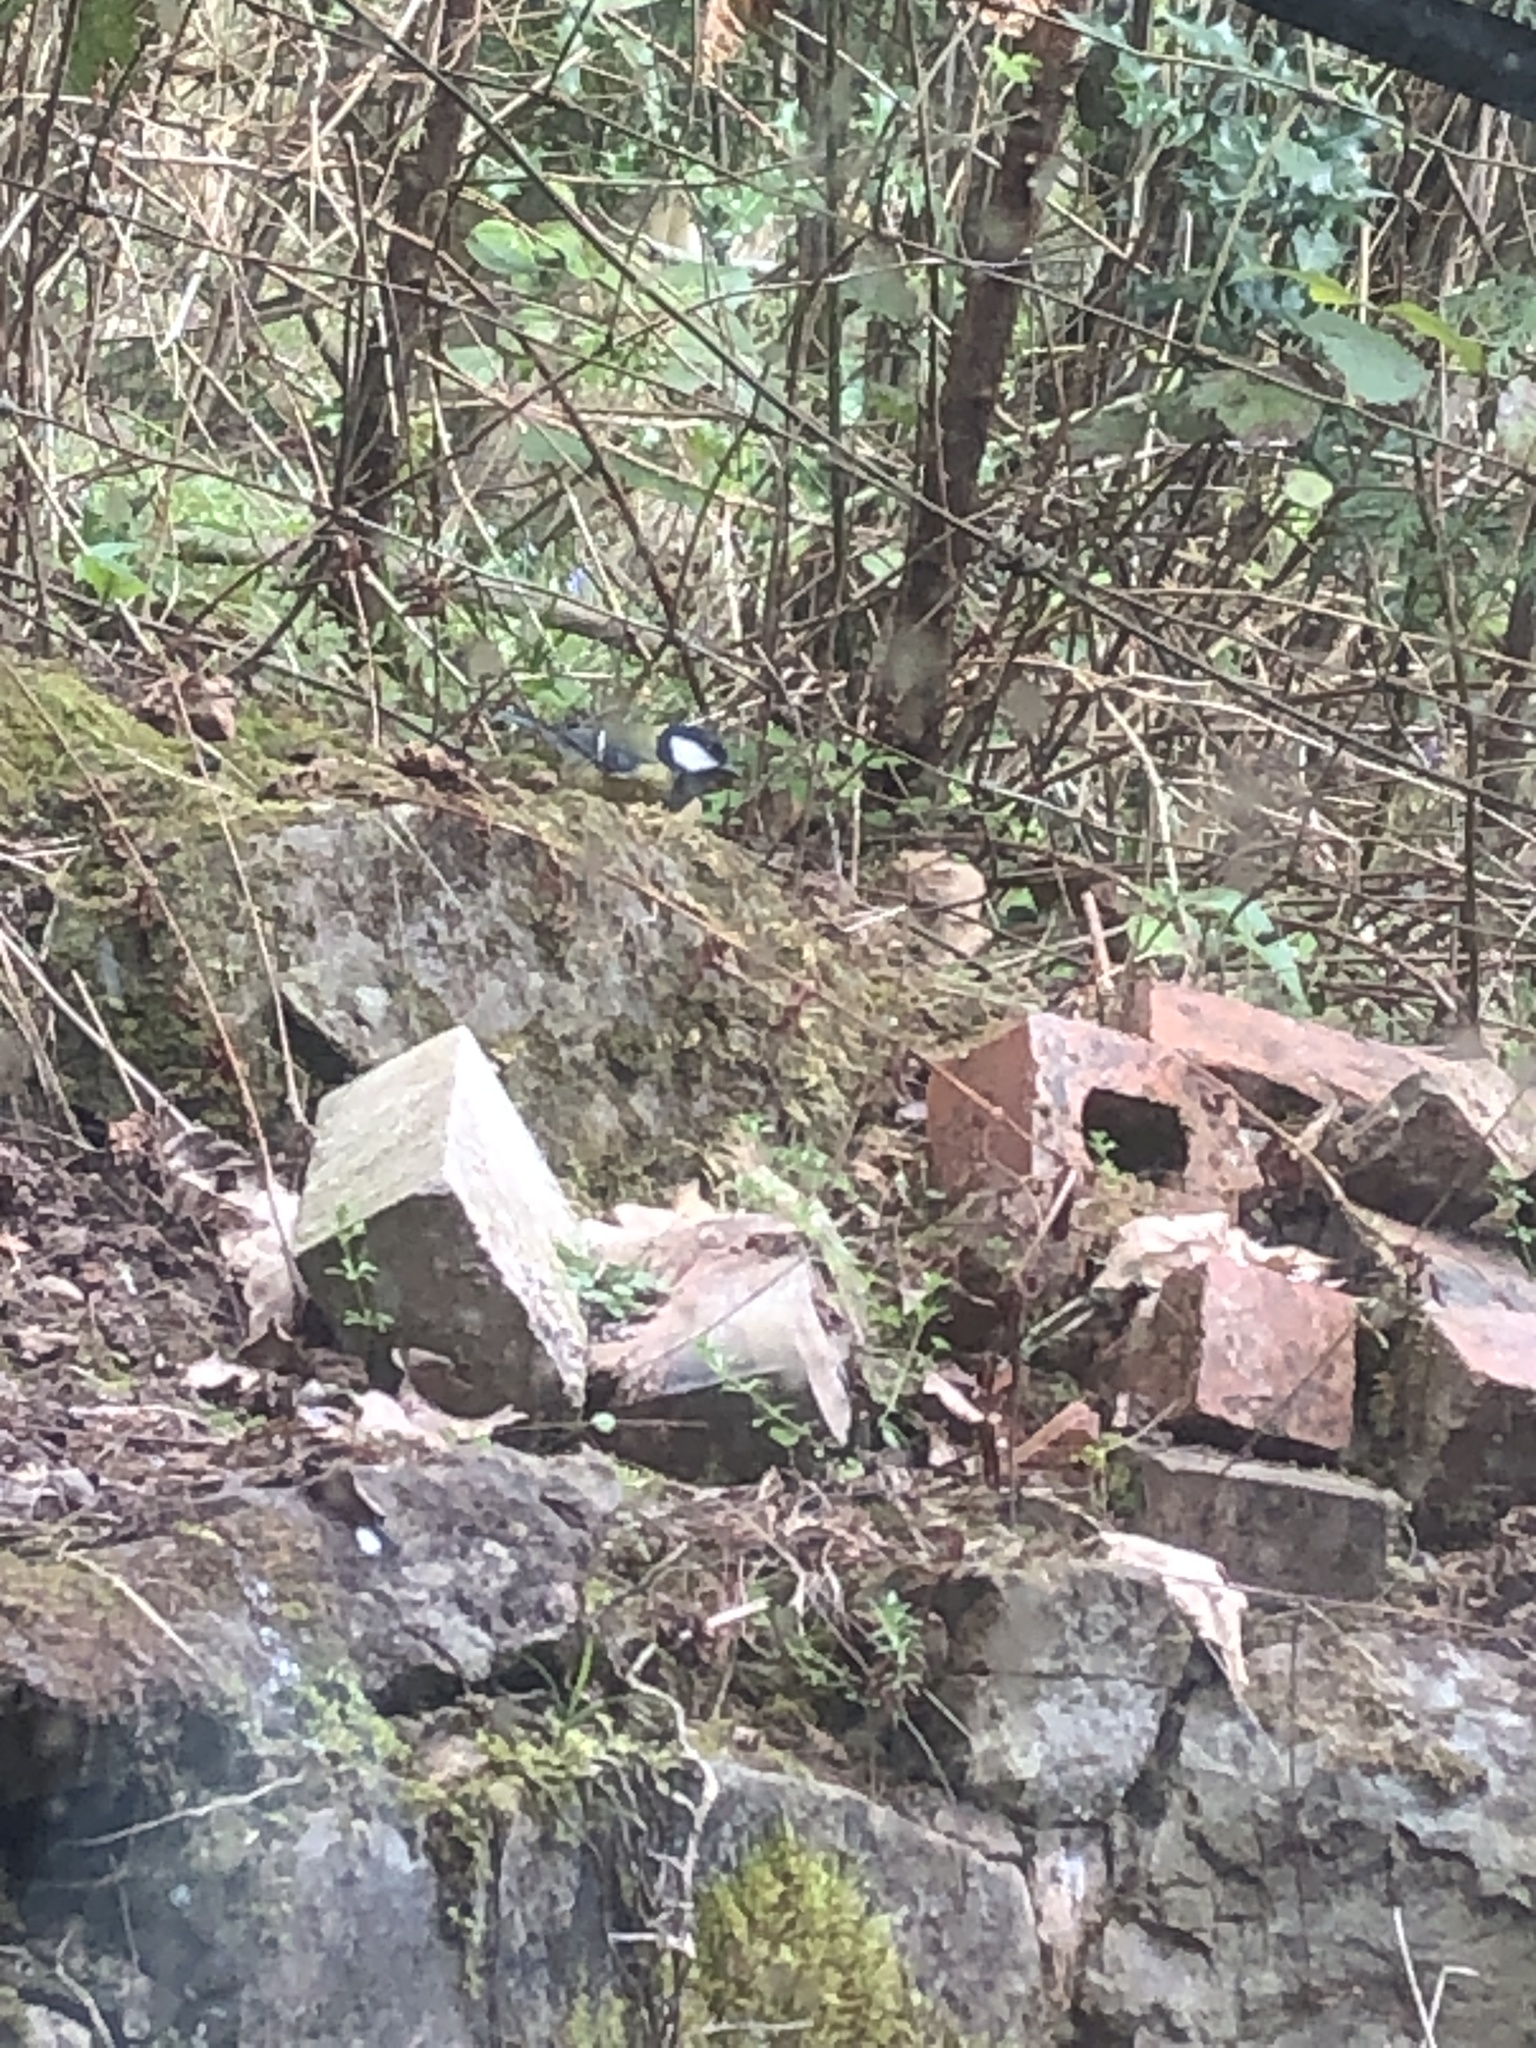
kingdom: Animalia
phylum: Chordata
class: Aves
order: Passeriformes
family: Paridae
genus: Parus
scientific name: Parus major
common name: Great tit
